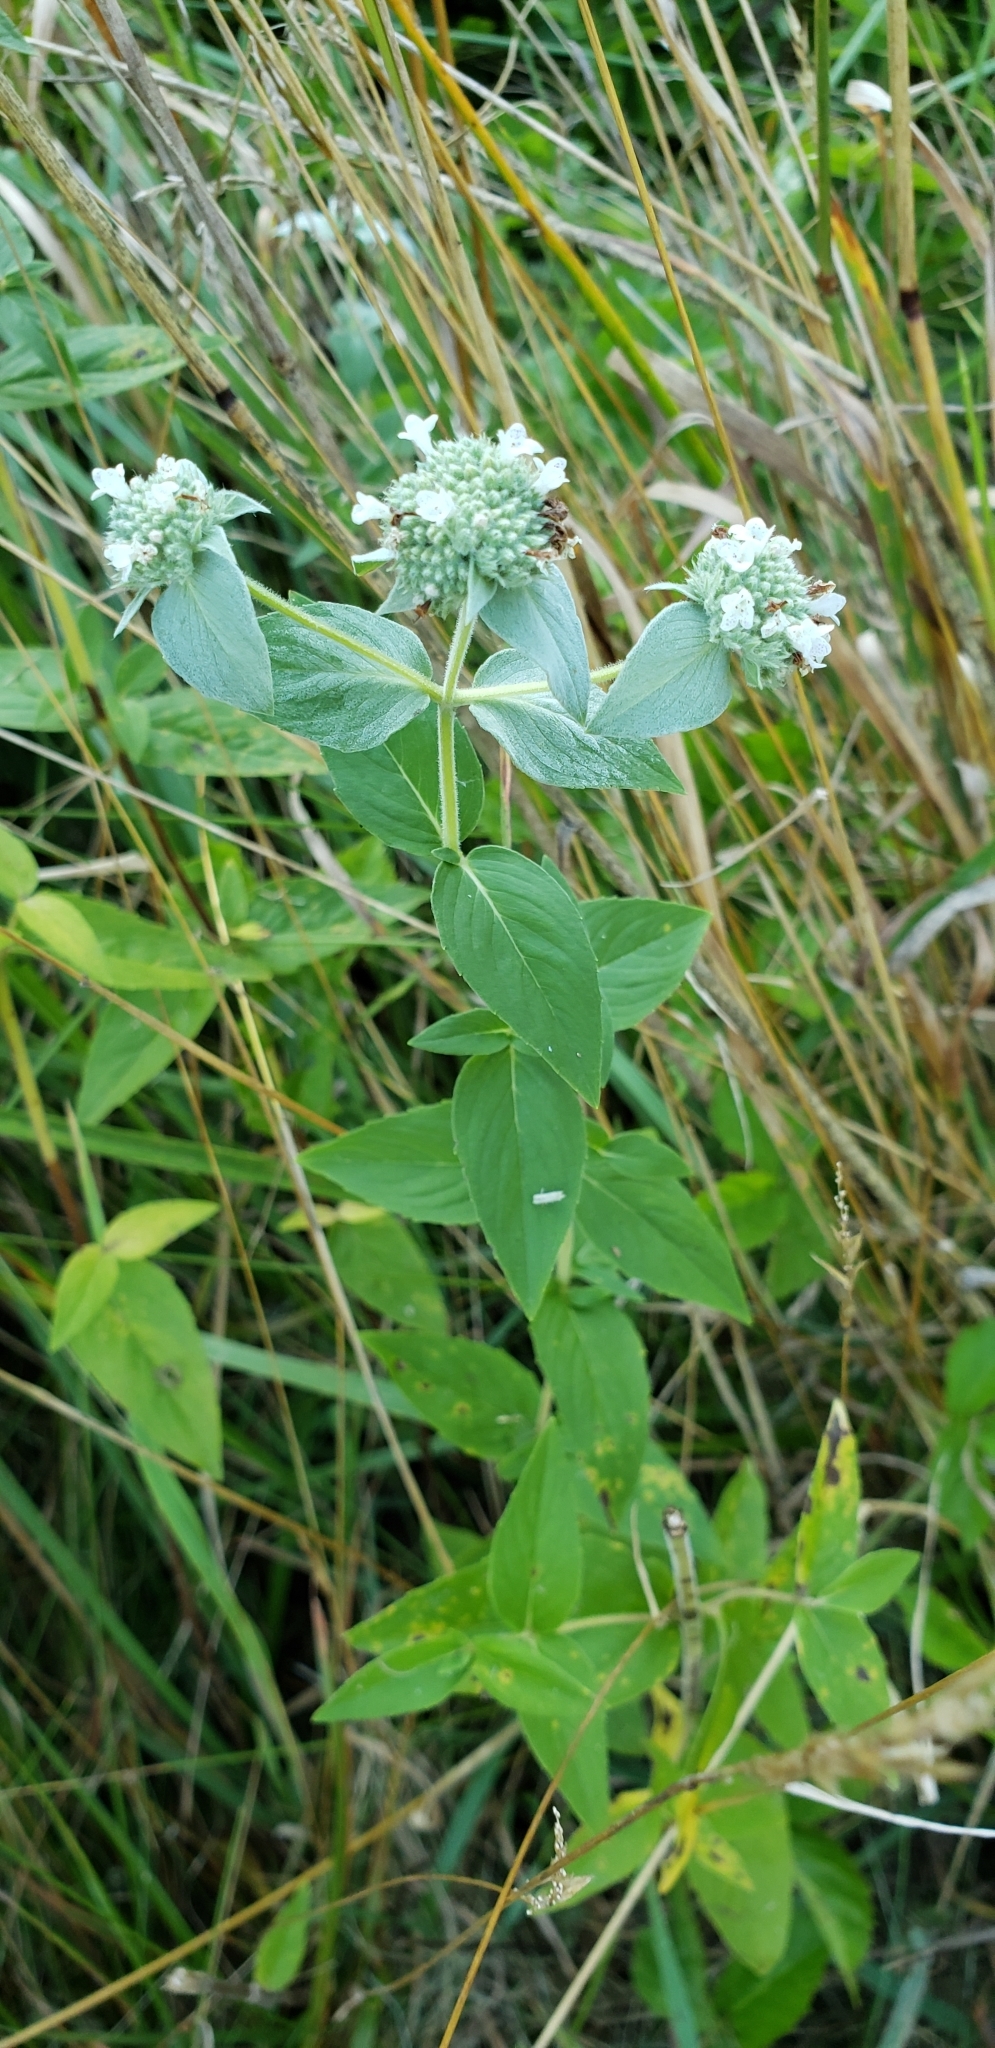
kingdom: Plantae
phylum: Tracheophyta
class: Magnoliopsida
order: Lamiales
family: Lamiaceae
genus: Pycnanthemum
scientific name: Pycnanthemum muticum
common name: Blunt mountain-mint
